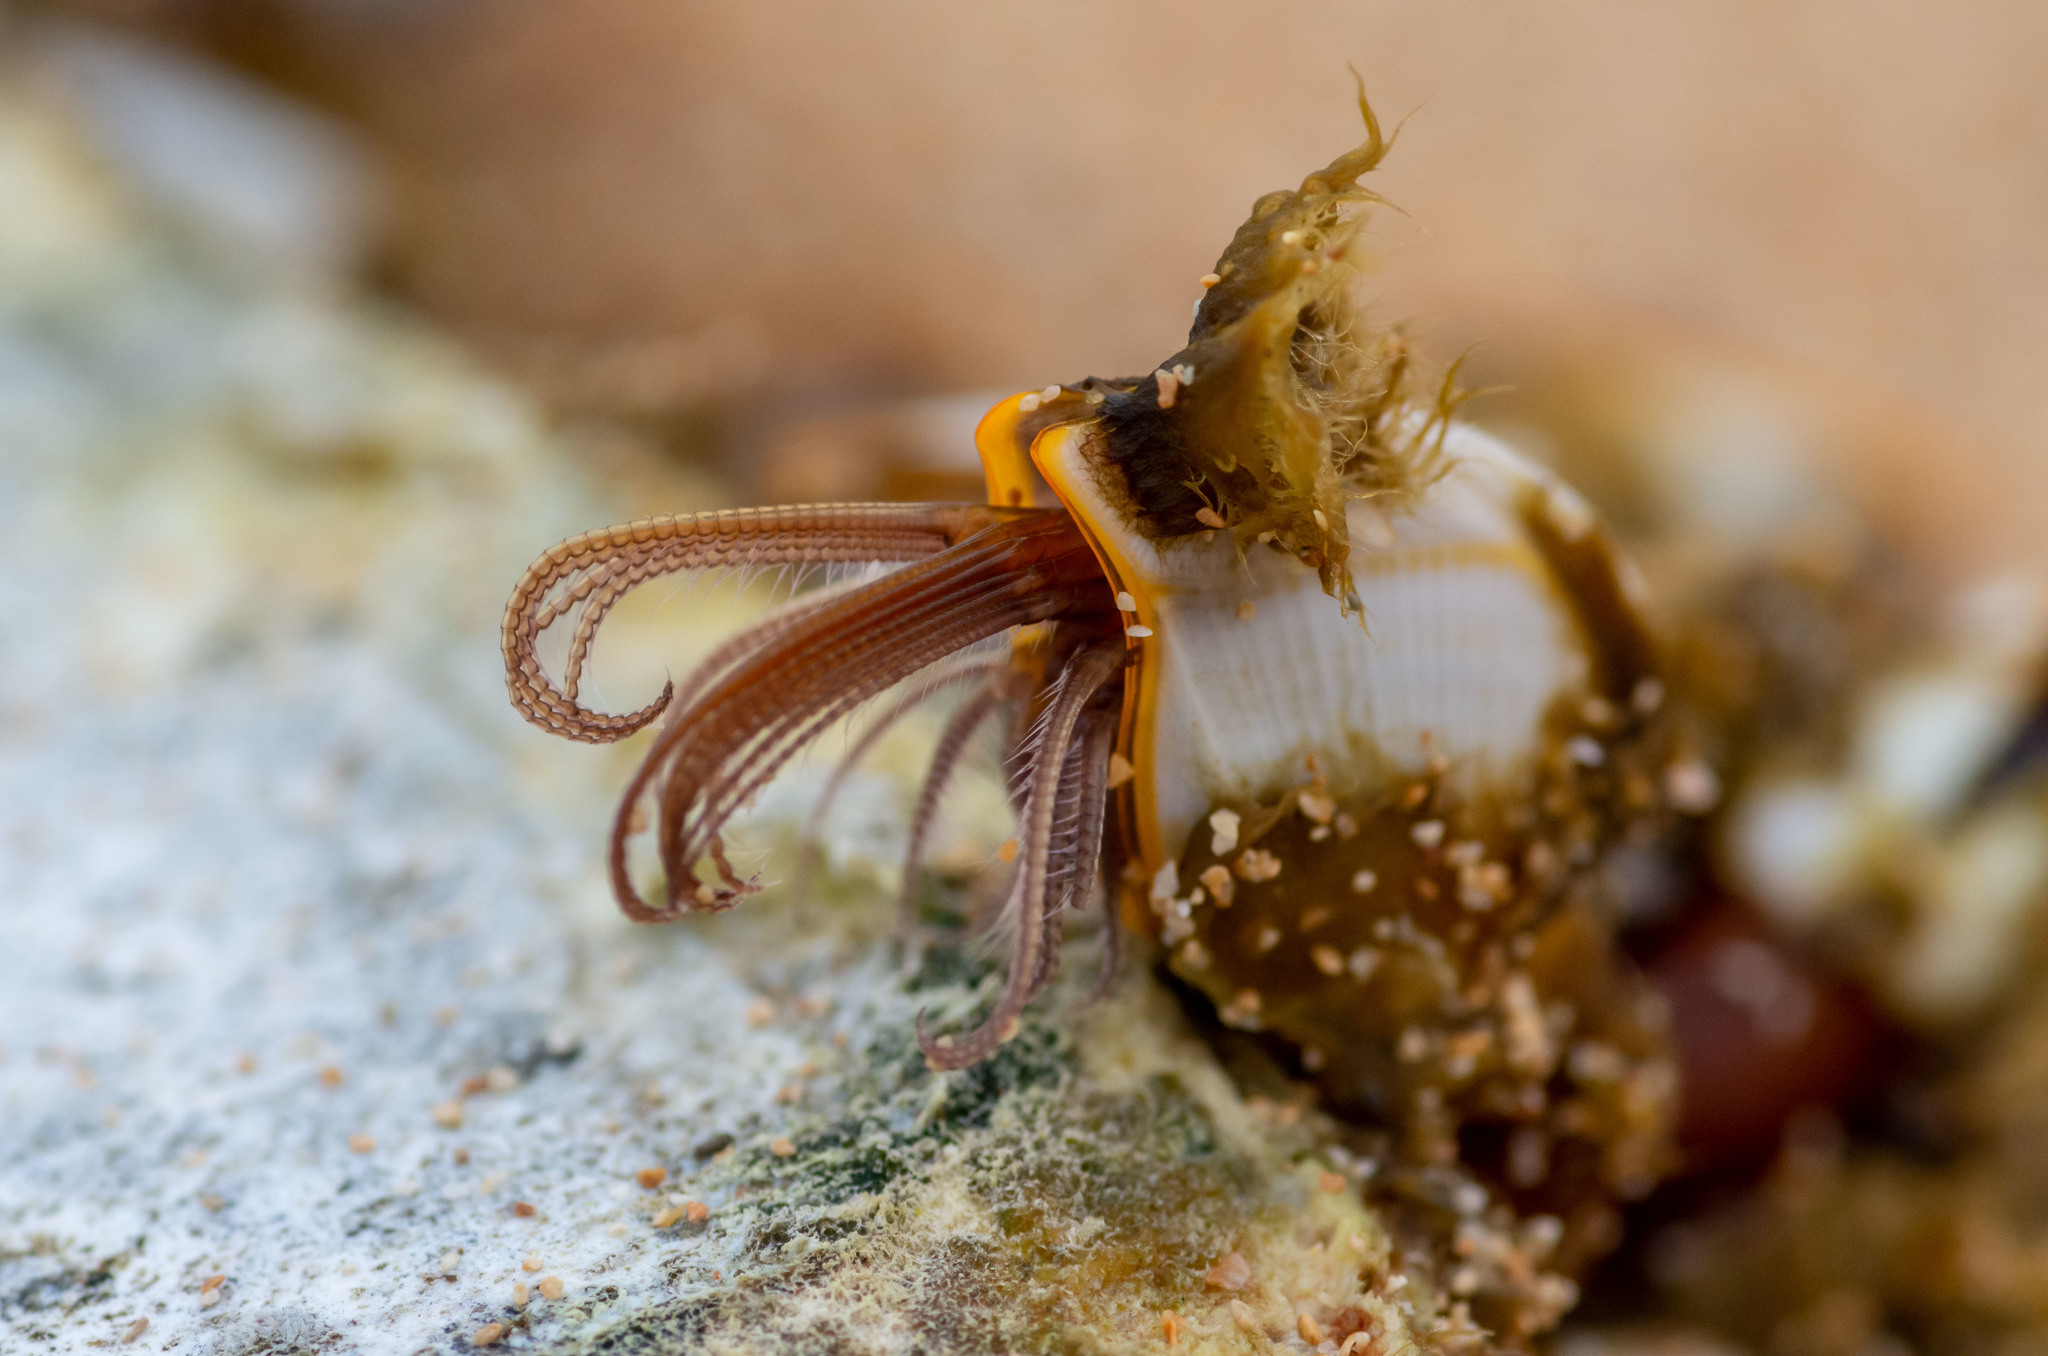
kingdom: Animalia
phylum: Arthropoda
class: Maxillopoda
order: Pedunculata
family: Lepadidae
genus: Lepas
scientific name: Lepas anserifera
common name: Goose barnacle
